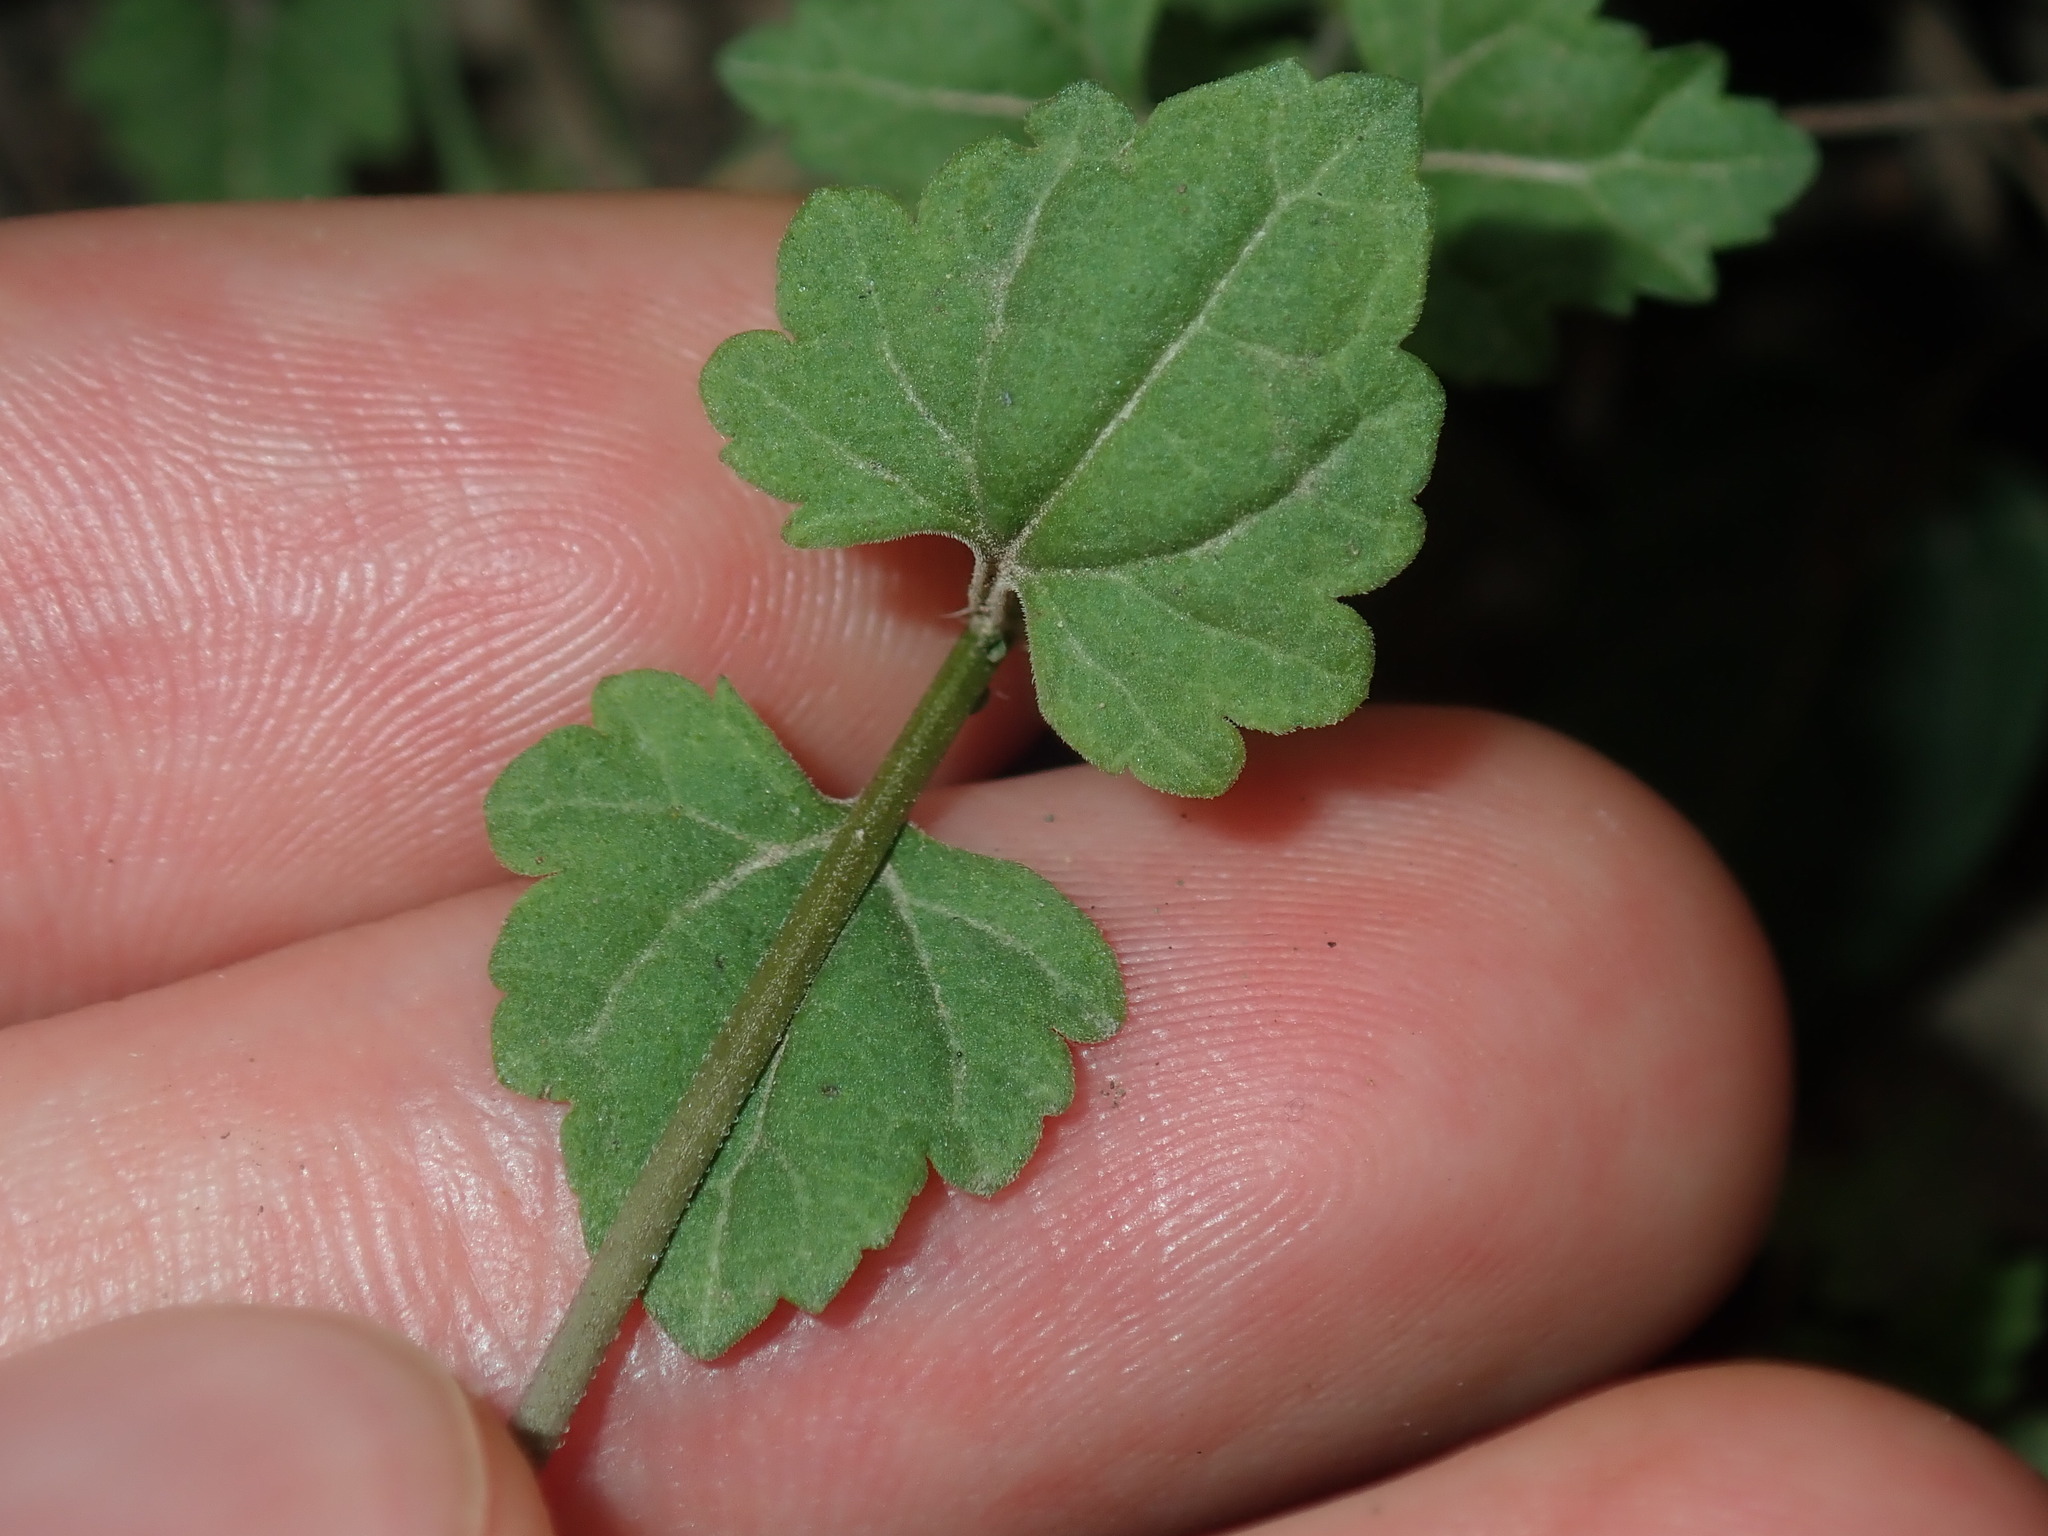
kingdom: Plantae
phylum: Tracheophyta
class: Magnoliopsida
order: Lamiales
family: Plantaginaceae
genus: Veronica
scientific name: Veronica plebeia
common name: Speedwell
